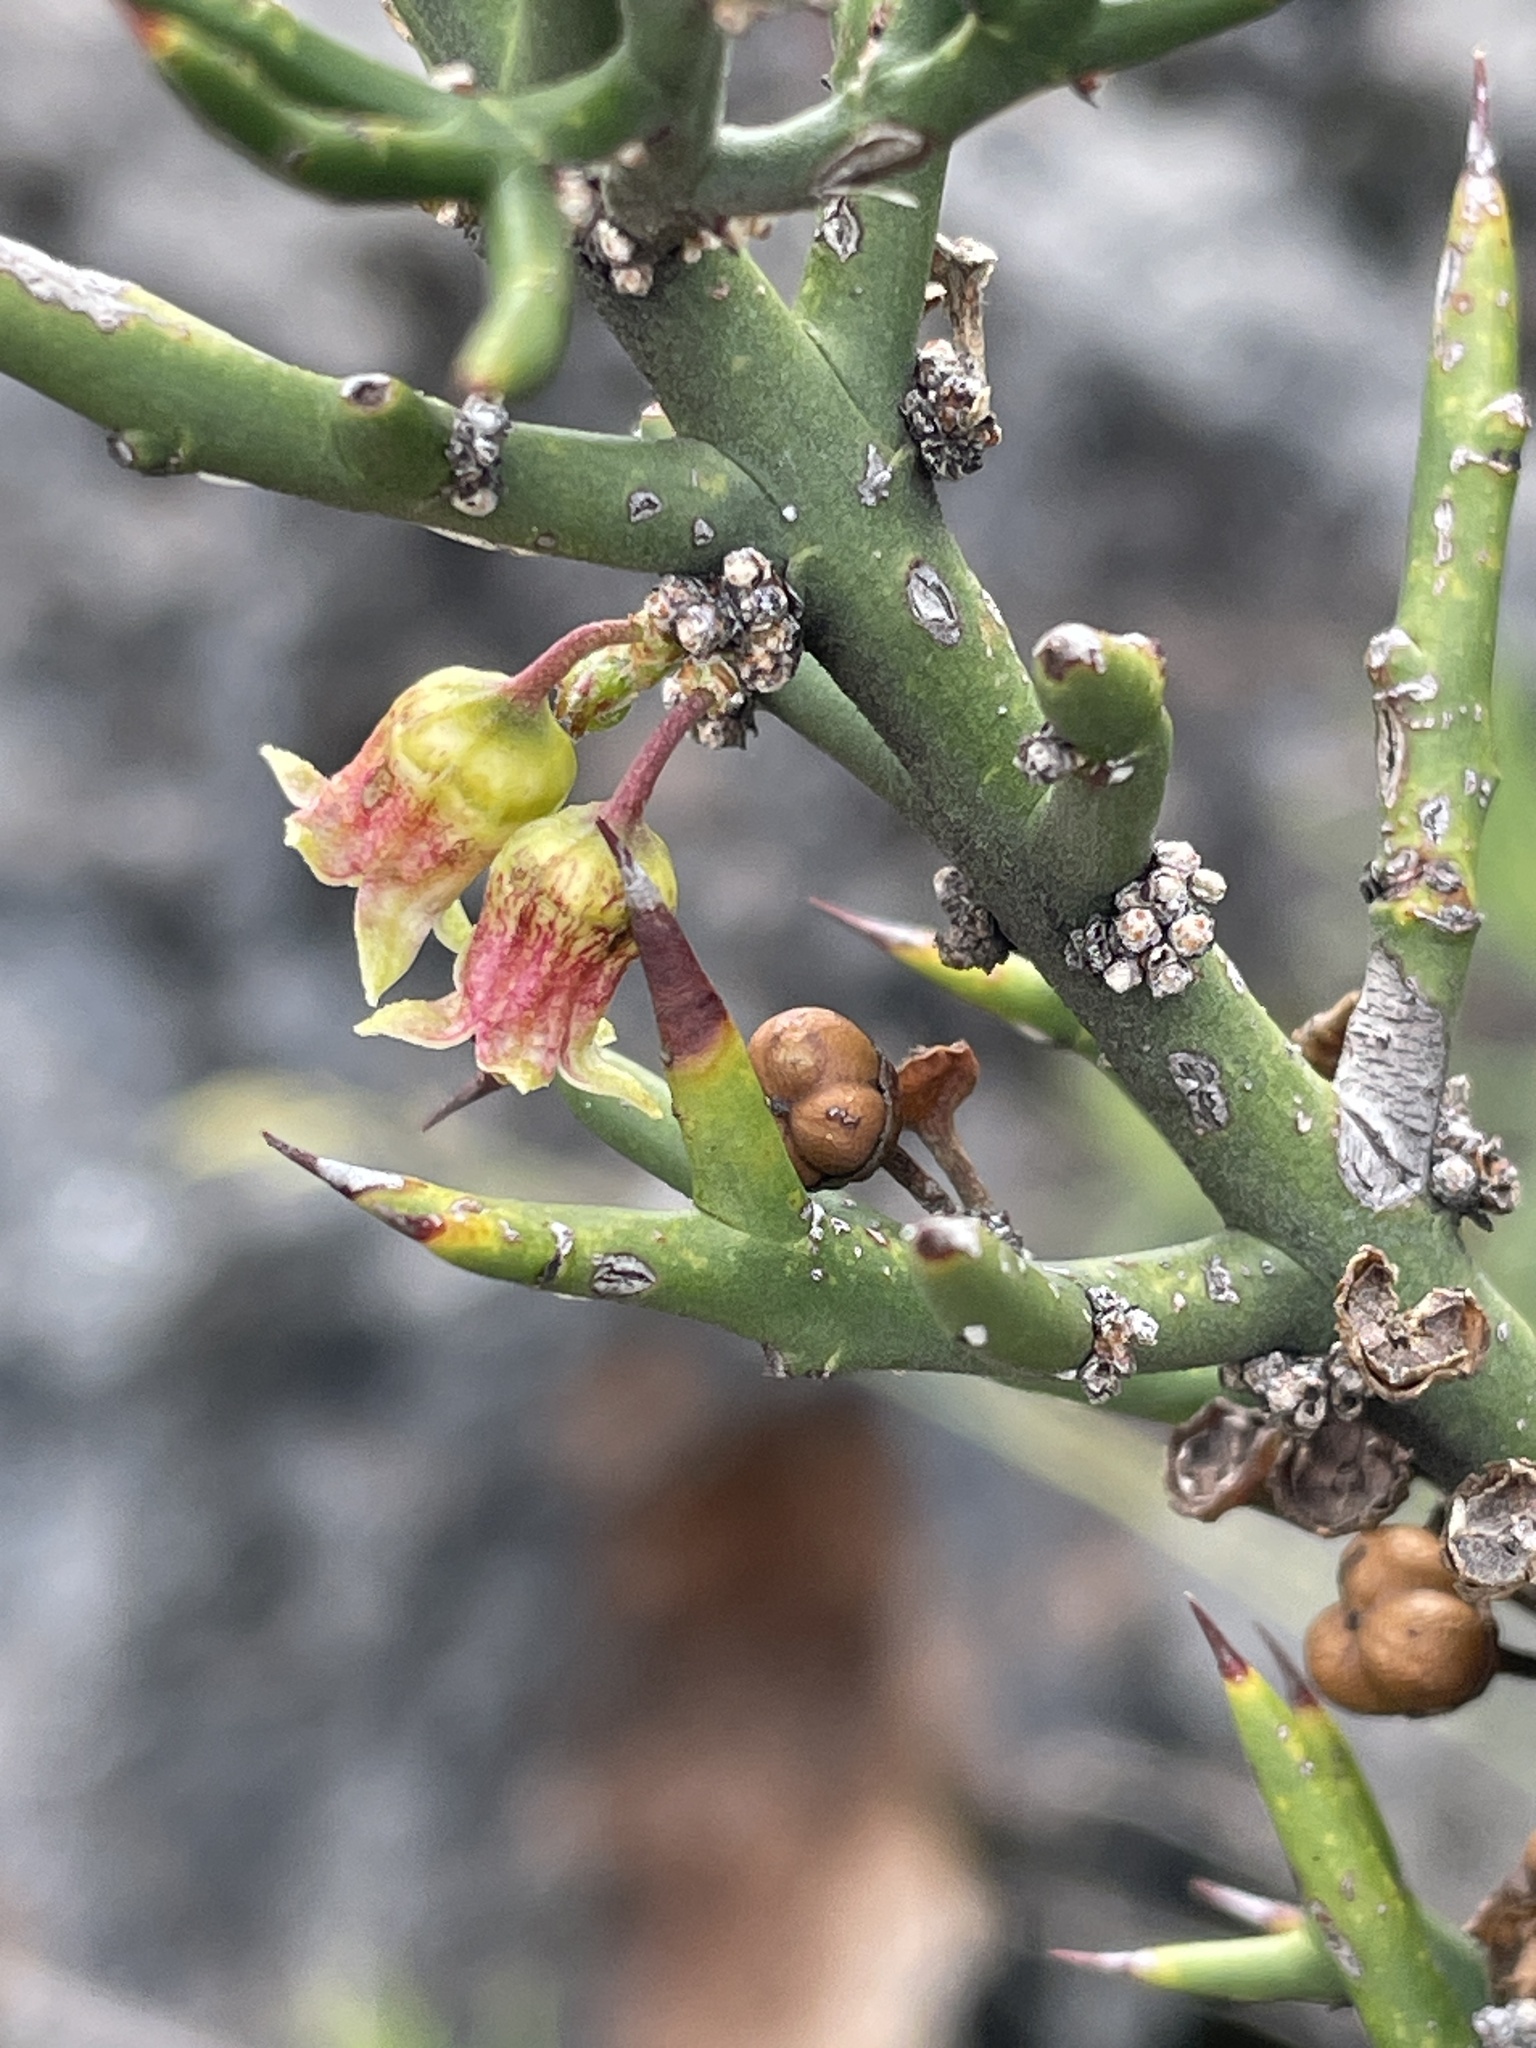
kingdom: Plantae
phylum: Tracheophyta
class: Magnoliopsida
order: Rosales
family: Rhamnaceae
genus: Colletia
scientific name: Colletia spinosissima
